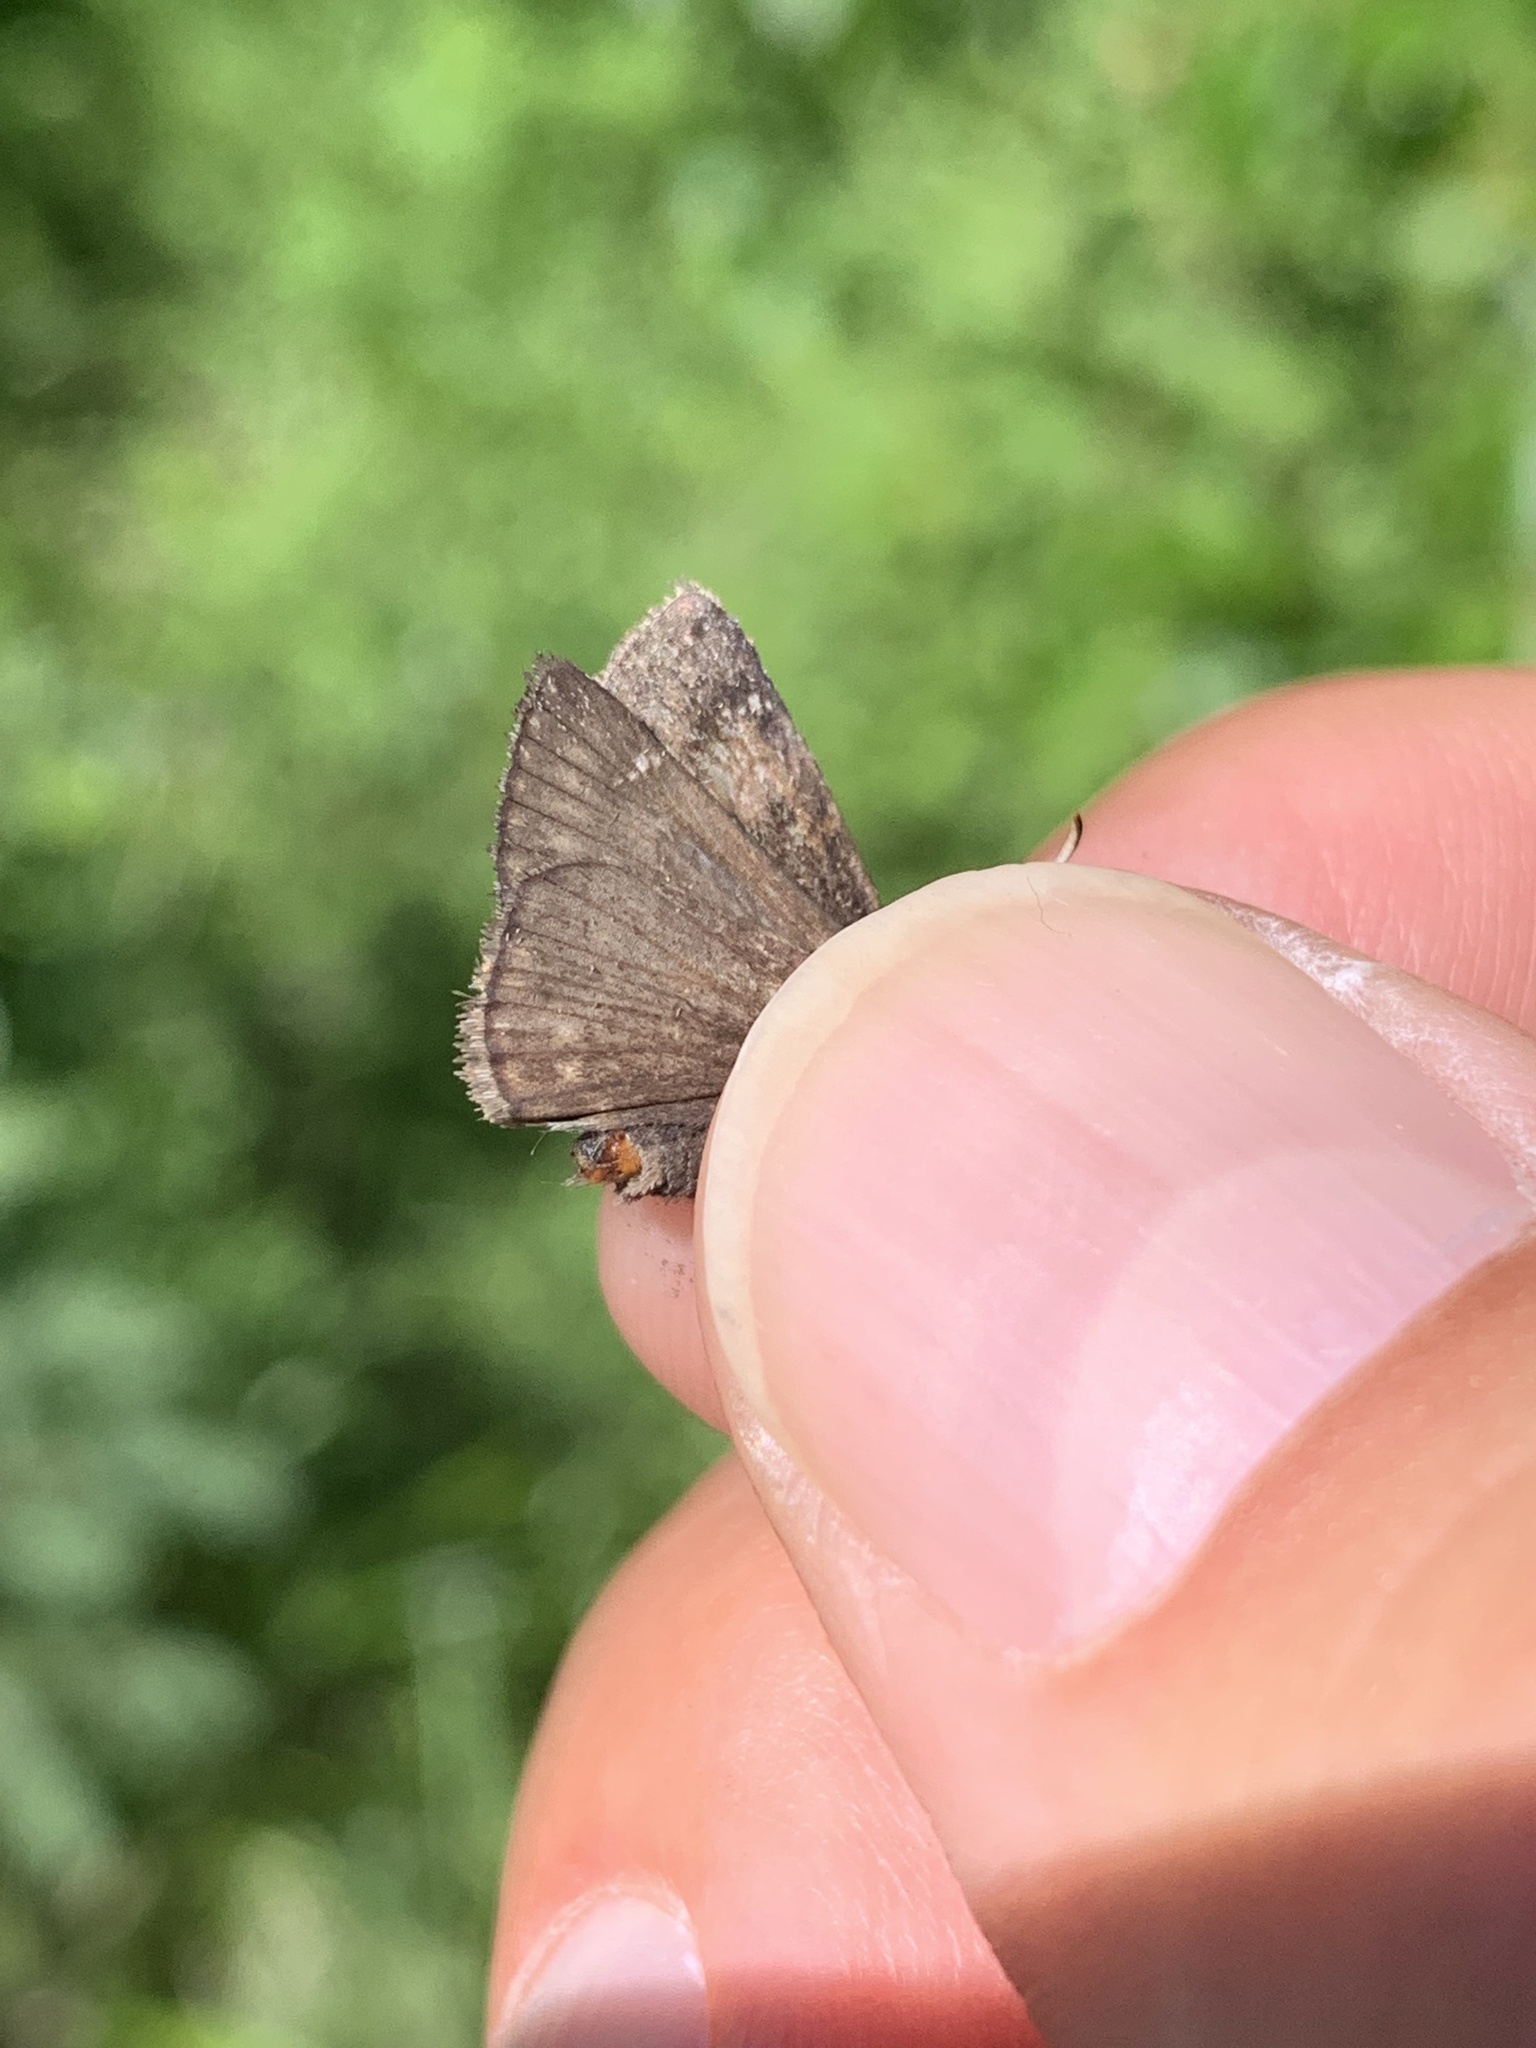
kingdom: Animalia
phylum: Arthropoda
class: Insecta
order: Lepidoptera
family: Hesperiidae
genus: Erynnis
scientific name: Erynnis persius
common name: Persius duskywing
